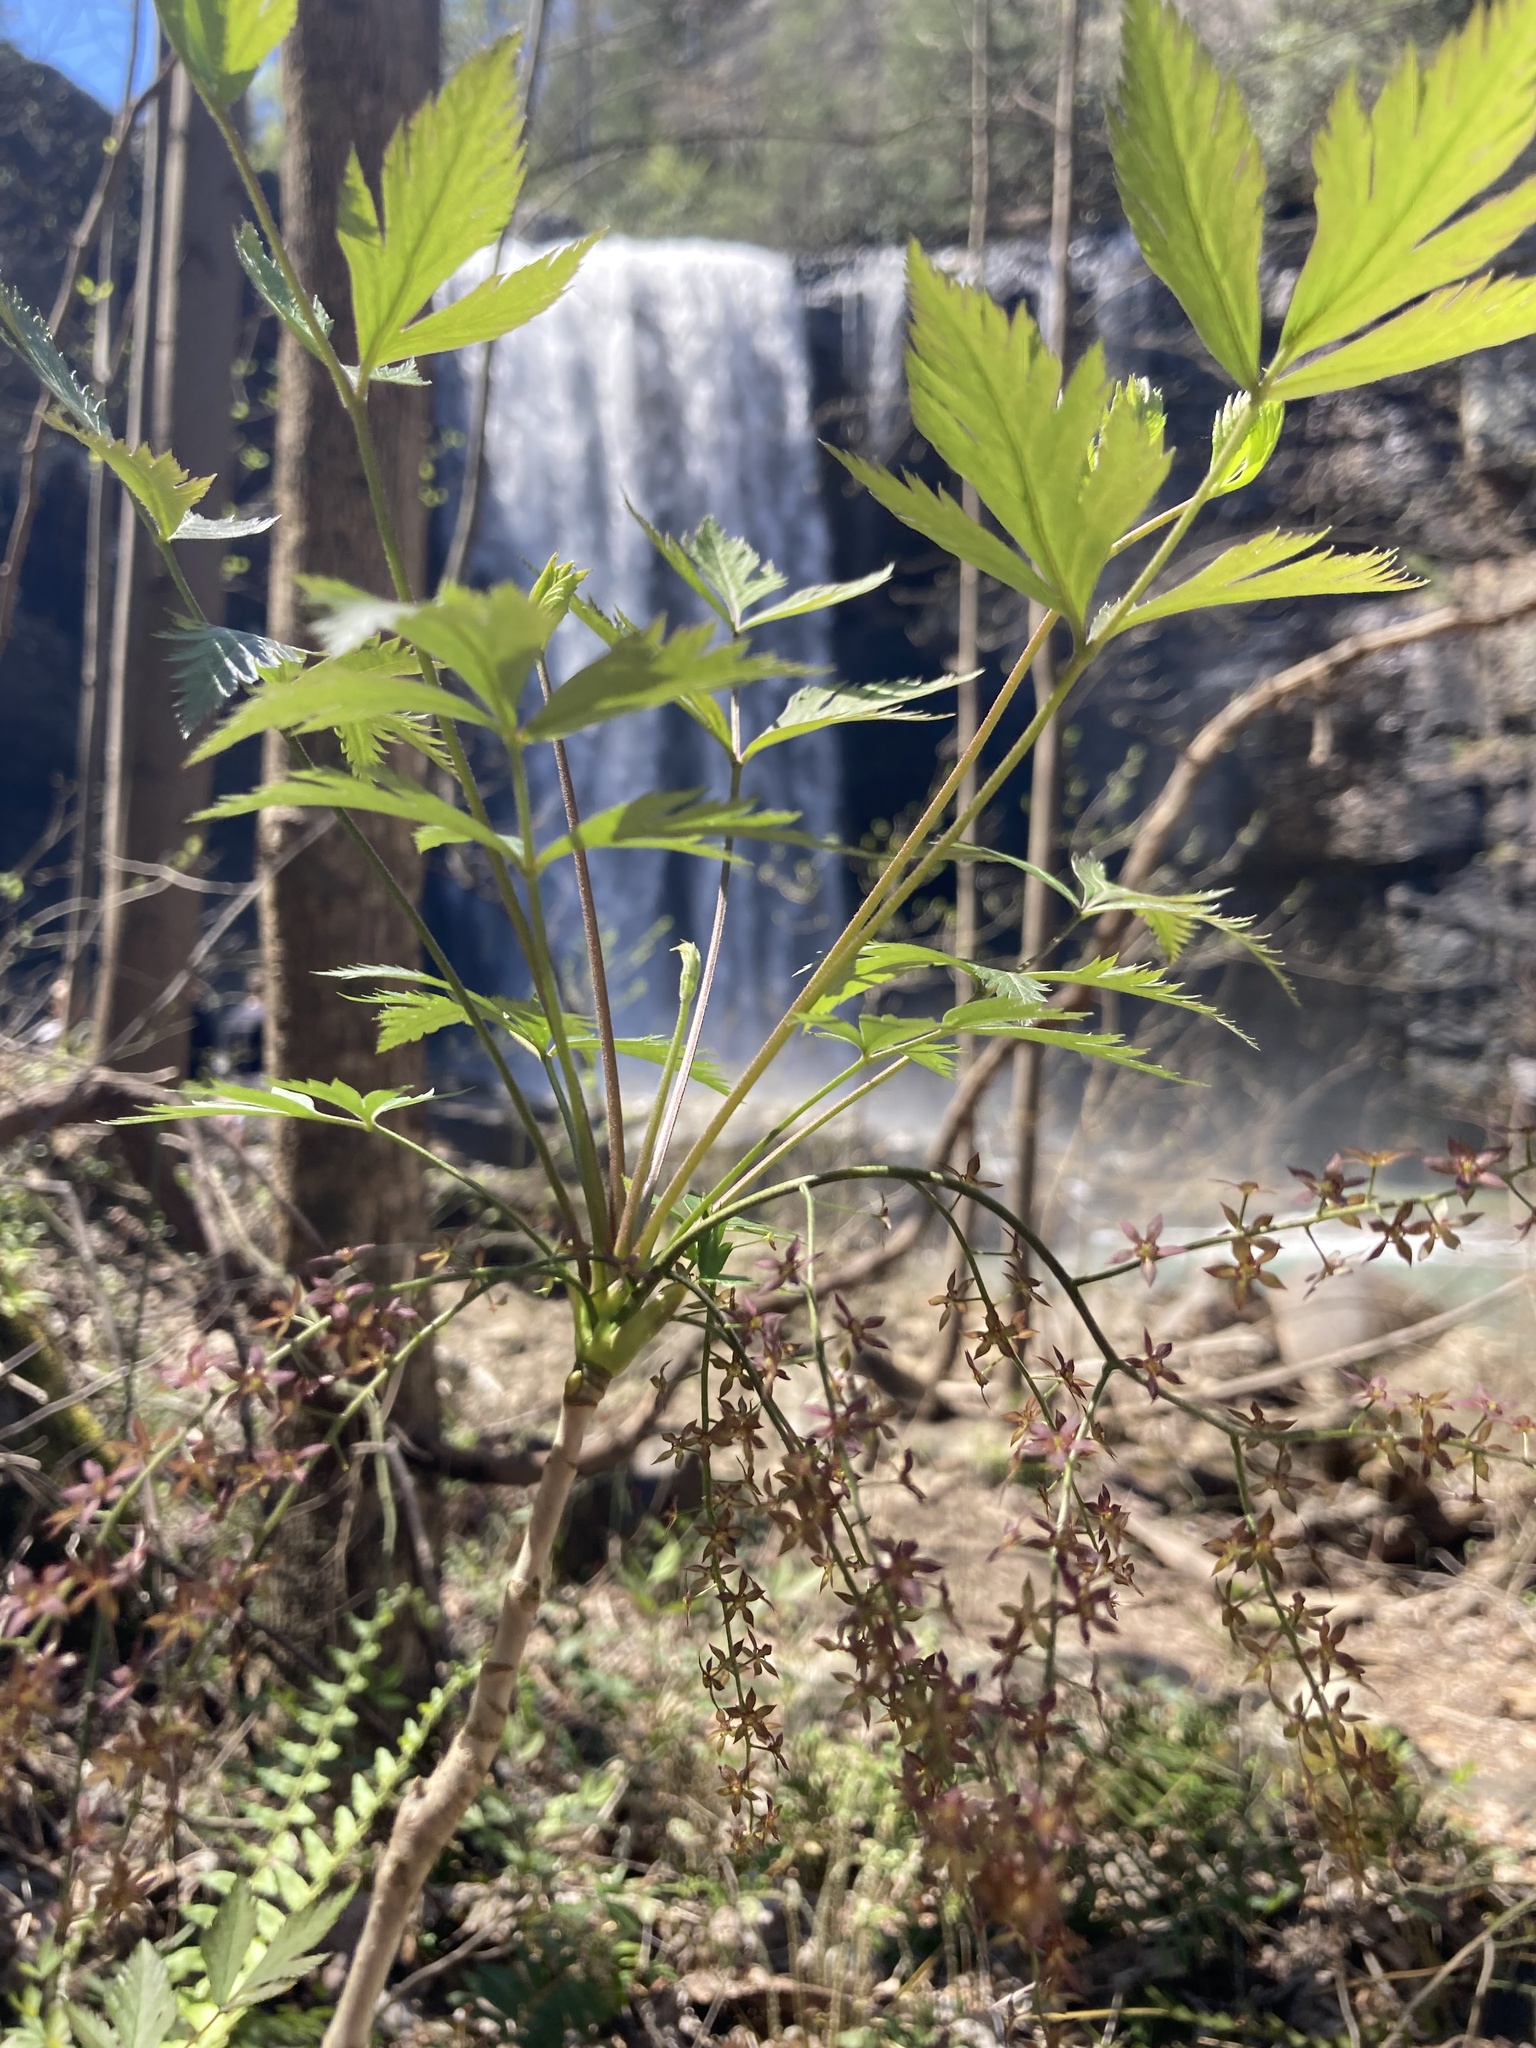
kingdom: Plantae
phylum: Tracheophyta
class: Magnoliopsida
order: Ranunculales
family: Ranunculaceae
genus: Xanthorhiza
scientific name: Xanthorhiza simplicissima
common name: Yellowroot
